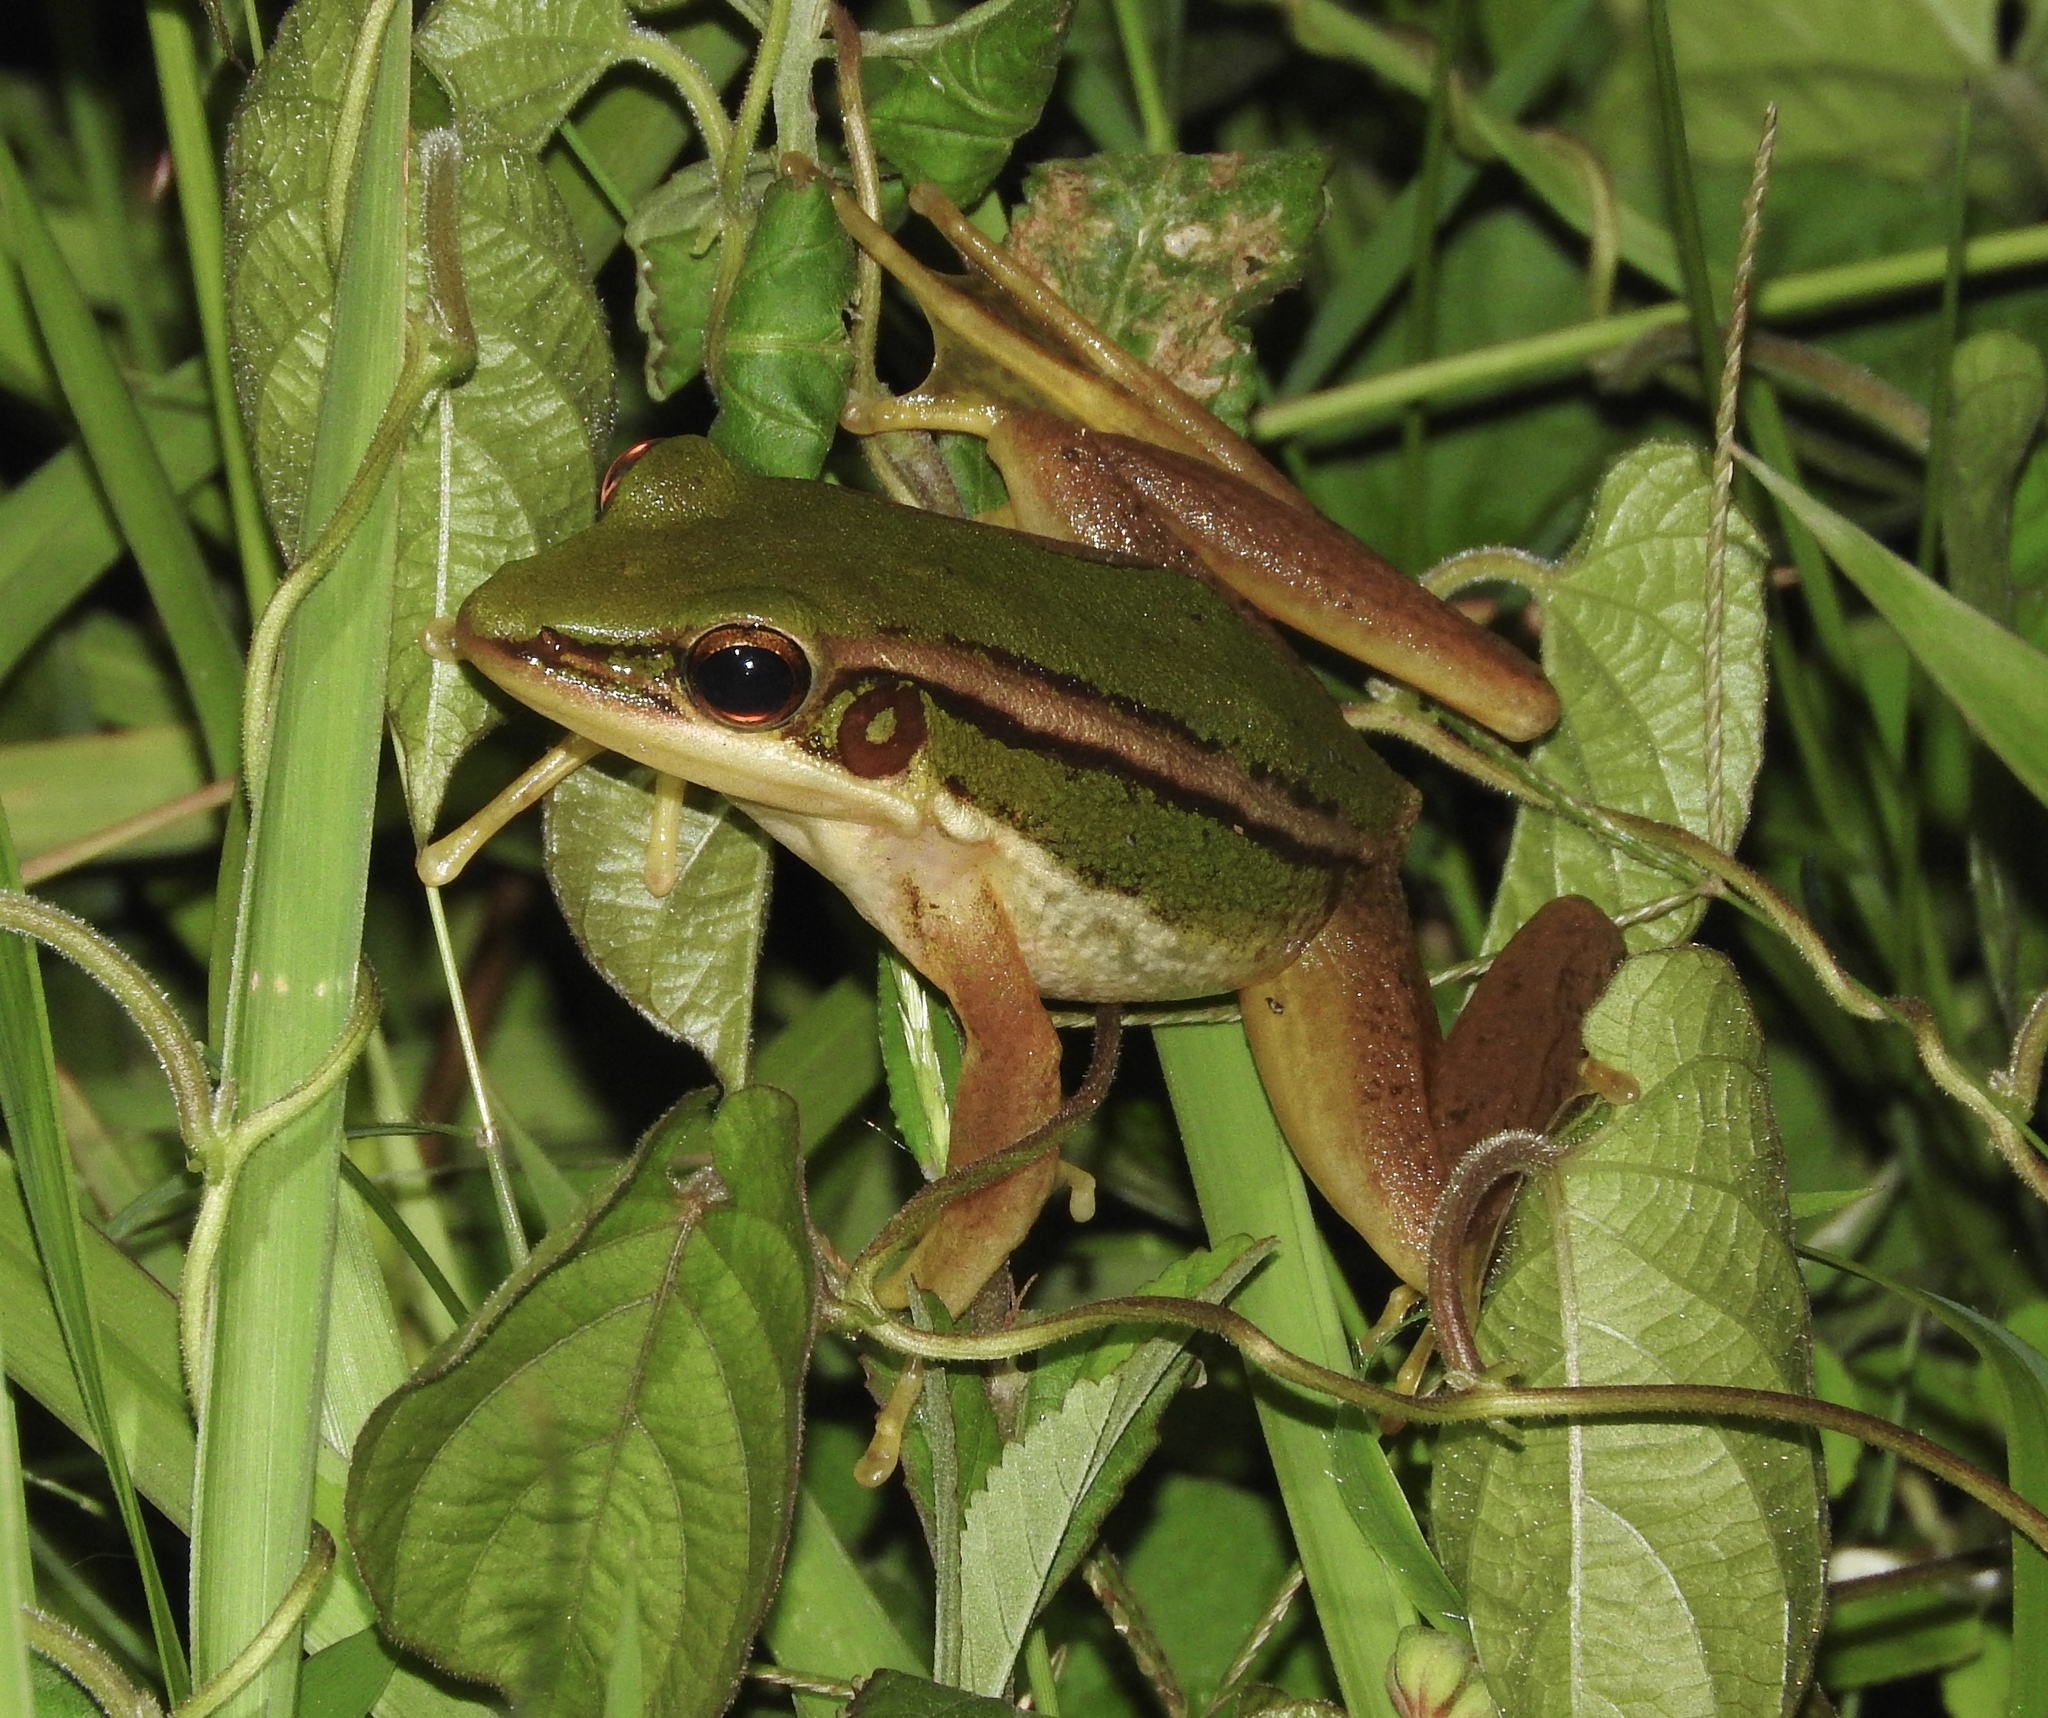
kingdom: Animalia
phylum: Chordata
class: Amphibia
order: Anura
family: Ranidae
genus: Hylarana
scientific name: Hylarana erythraea
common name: Common green frog/green paddy frog/leaf frog
